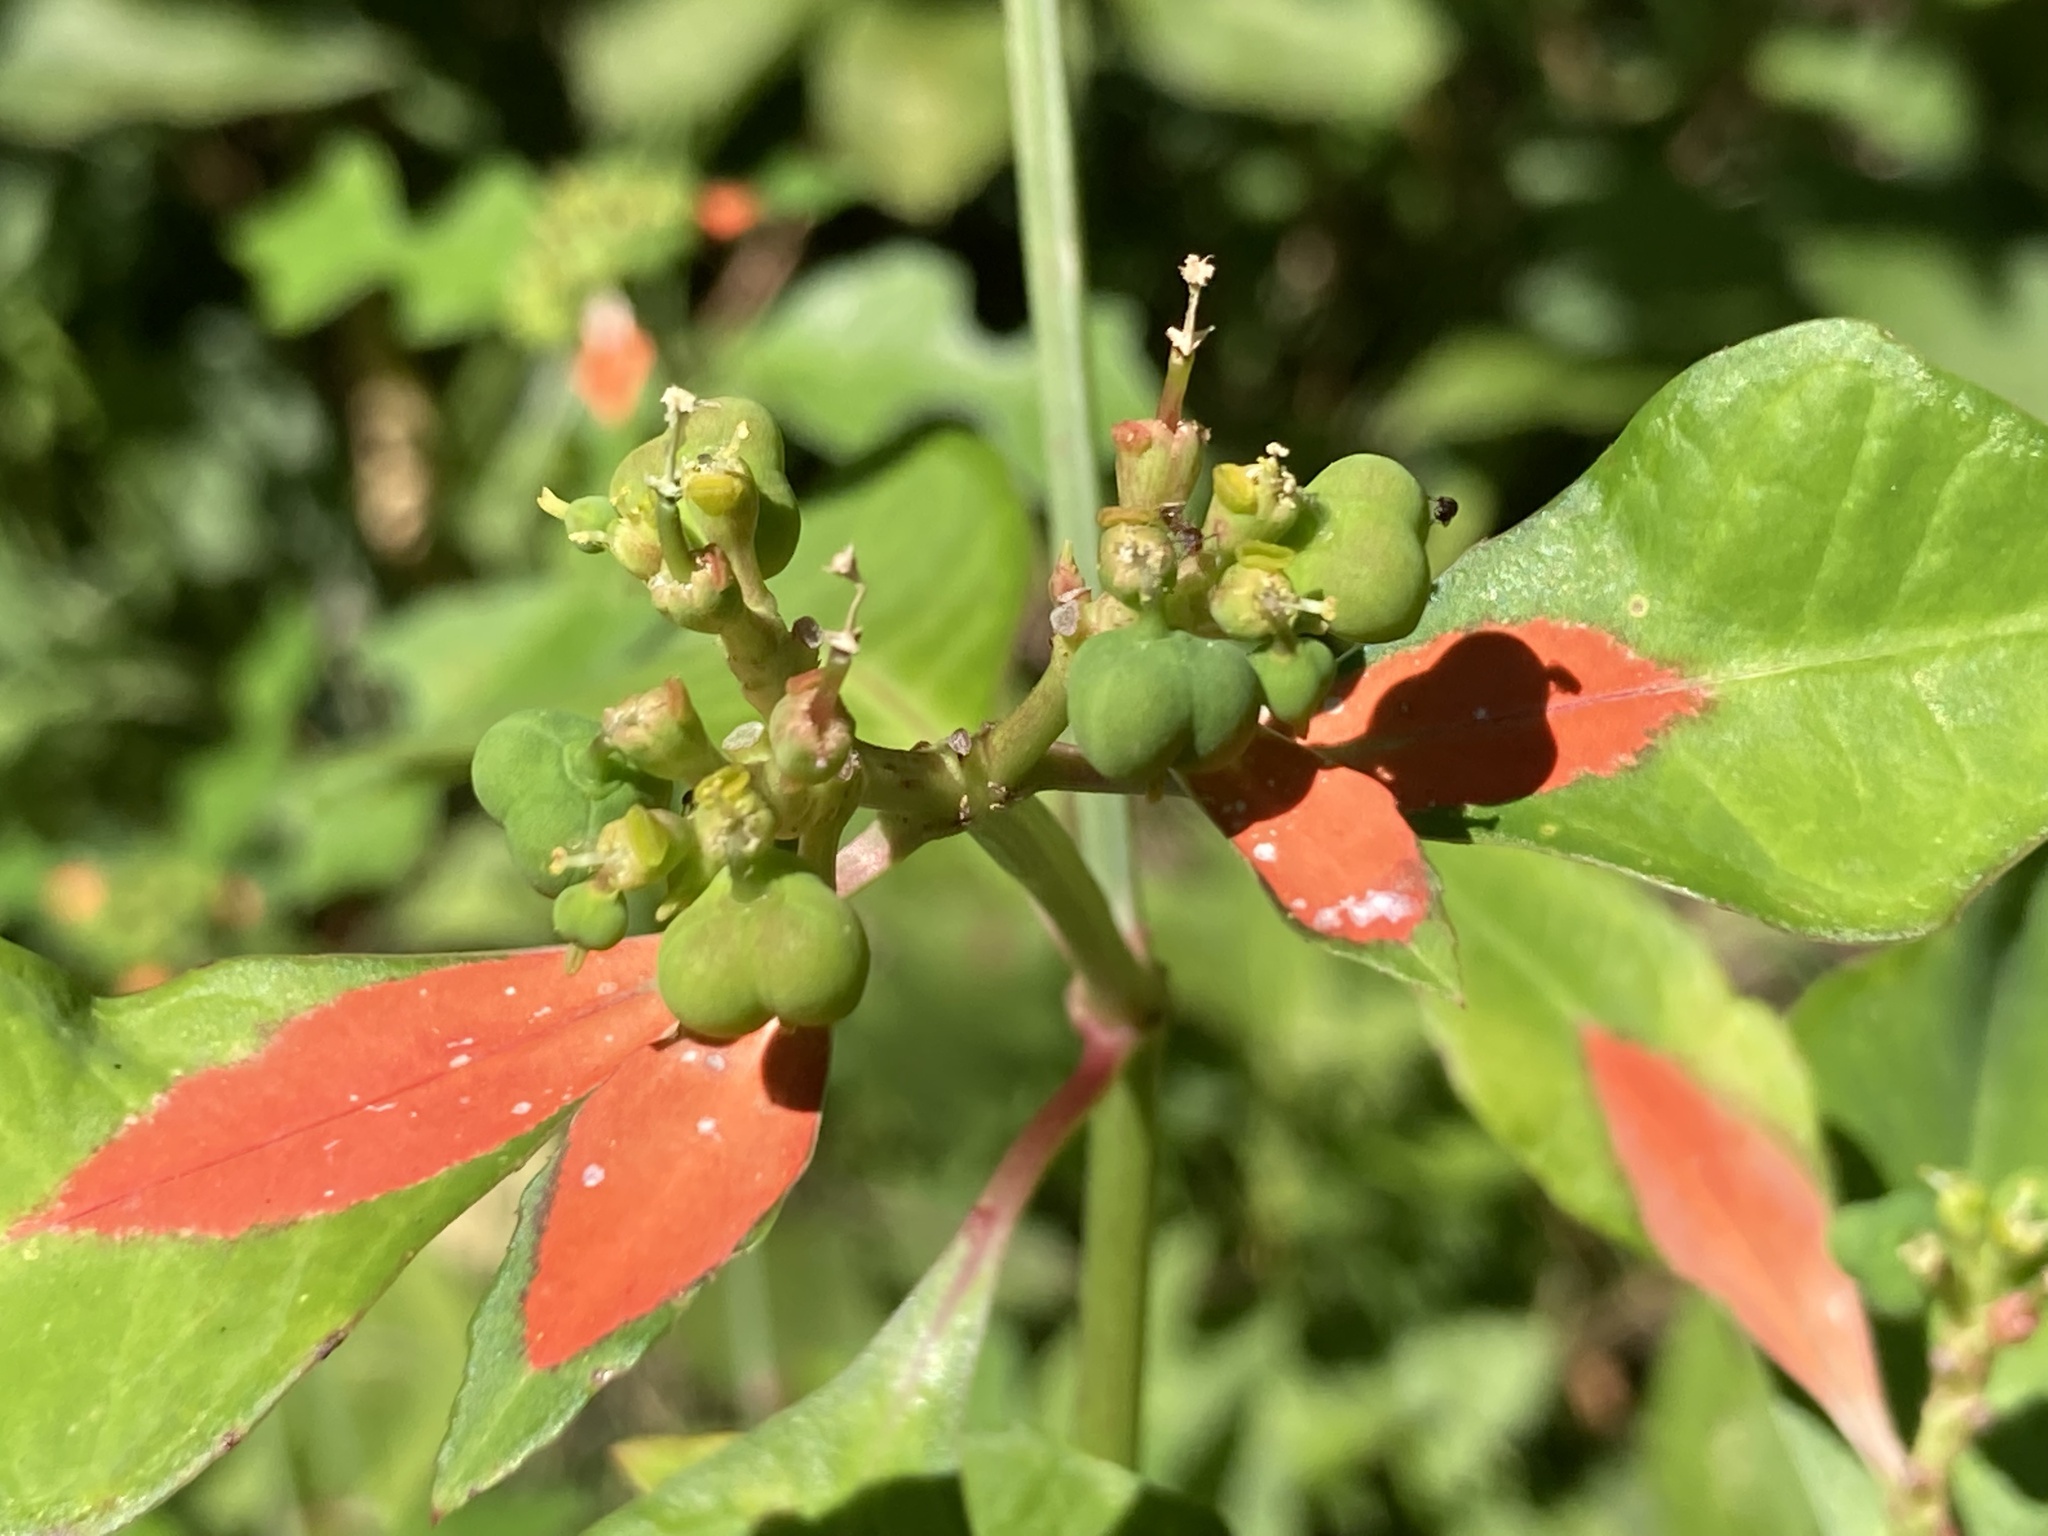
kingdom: Plantae
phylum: Tracheophyta
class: Magnoliopsida
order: Malpighiales
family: Euphorbiaceae
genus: Euphorbia
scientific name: Euphorbia heterophylla
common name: Mexican fireplant
